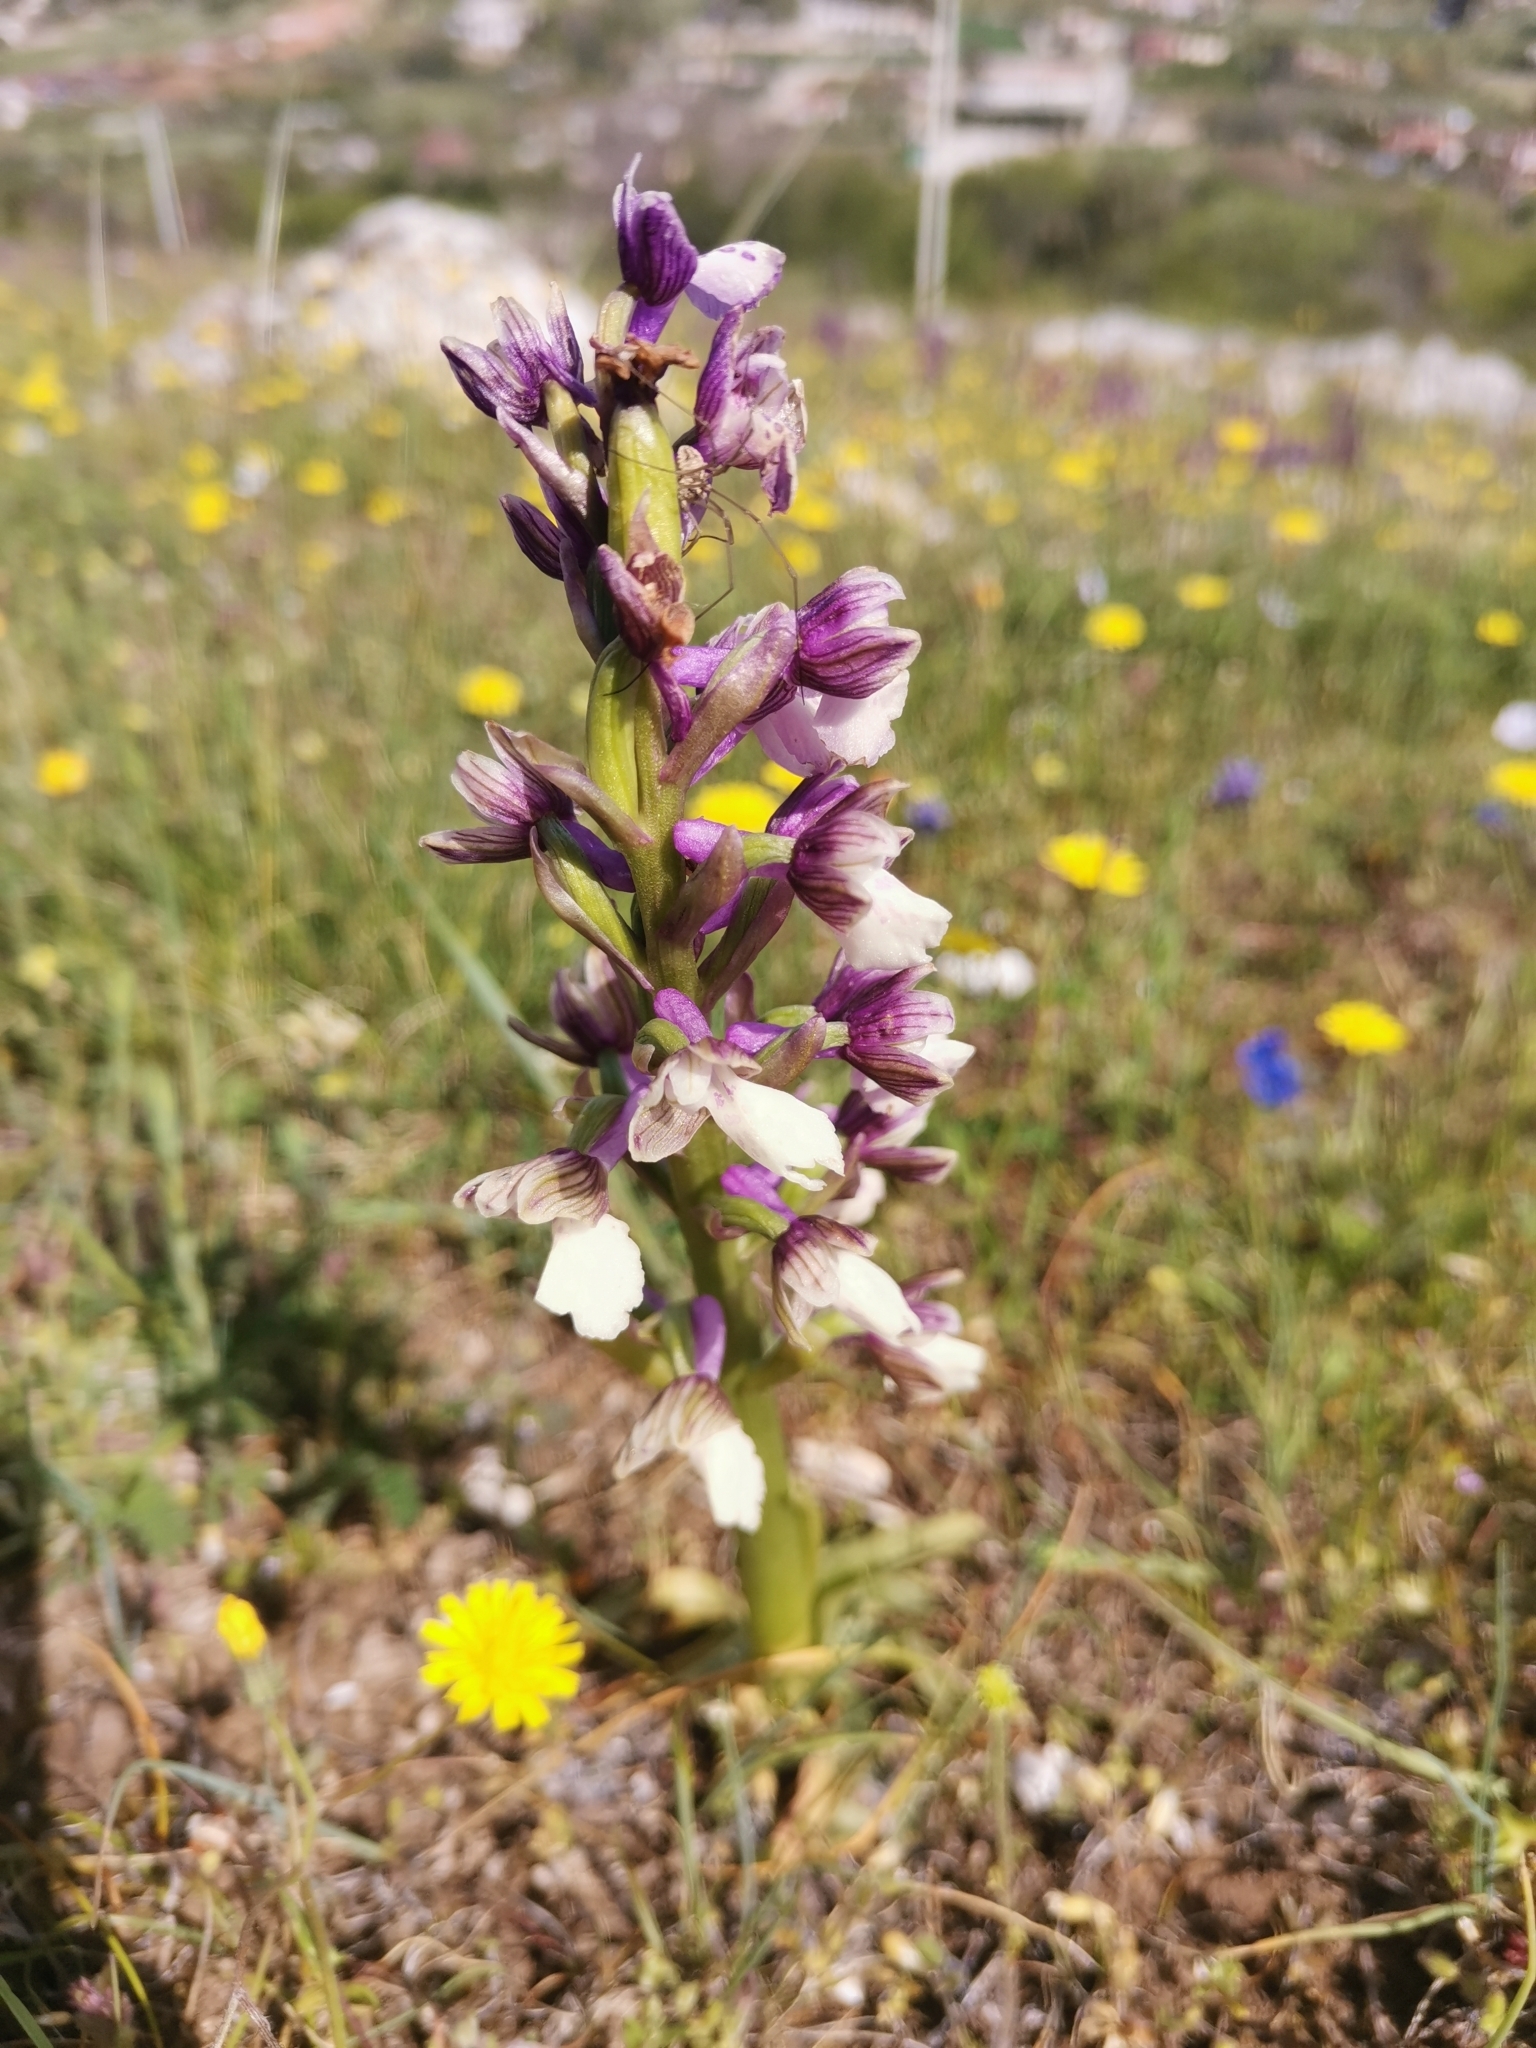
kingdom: Plantae
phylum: Tracheophyta
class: Liliopsida
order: Asparagales
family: Orchidaceae
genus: Anacamptis
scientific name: Anacamptis morio
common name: Green-winged orchid
